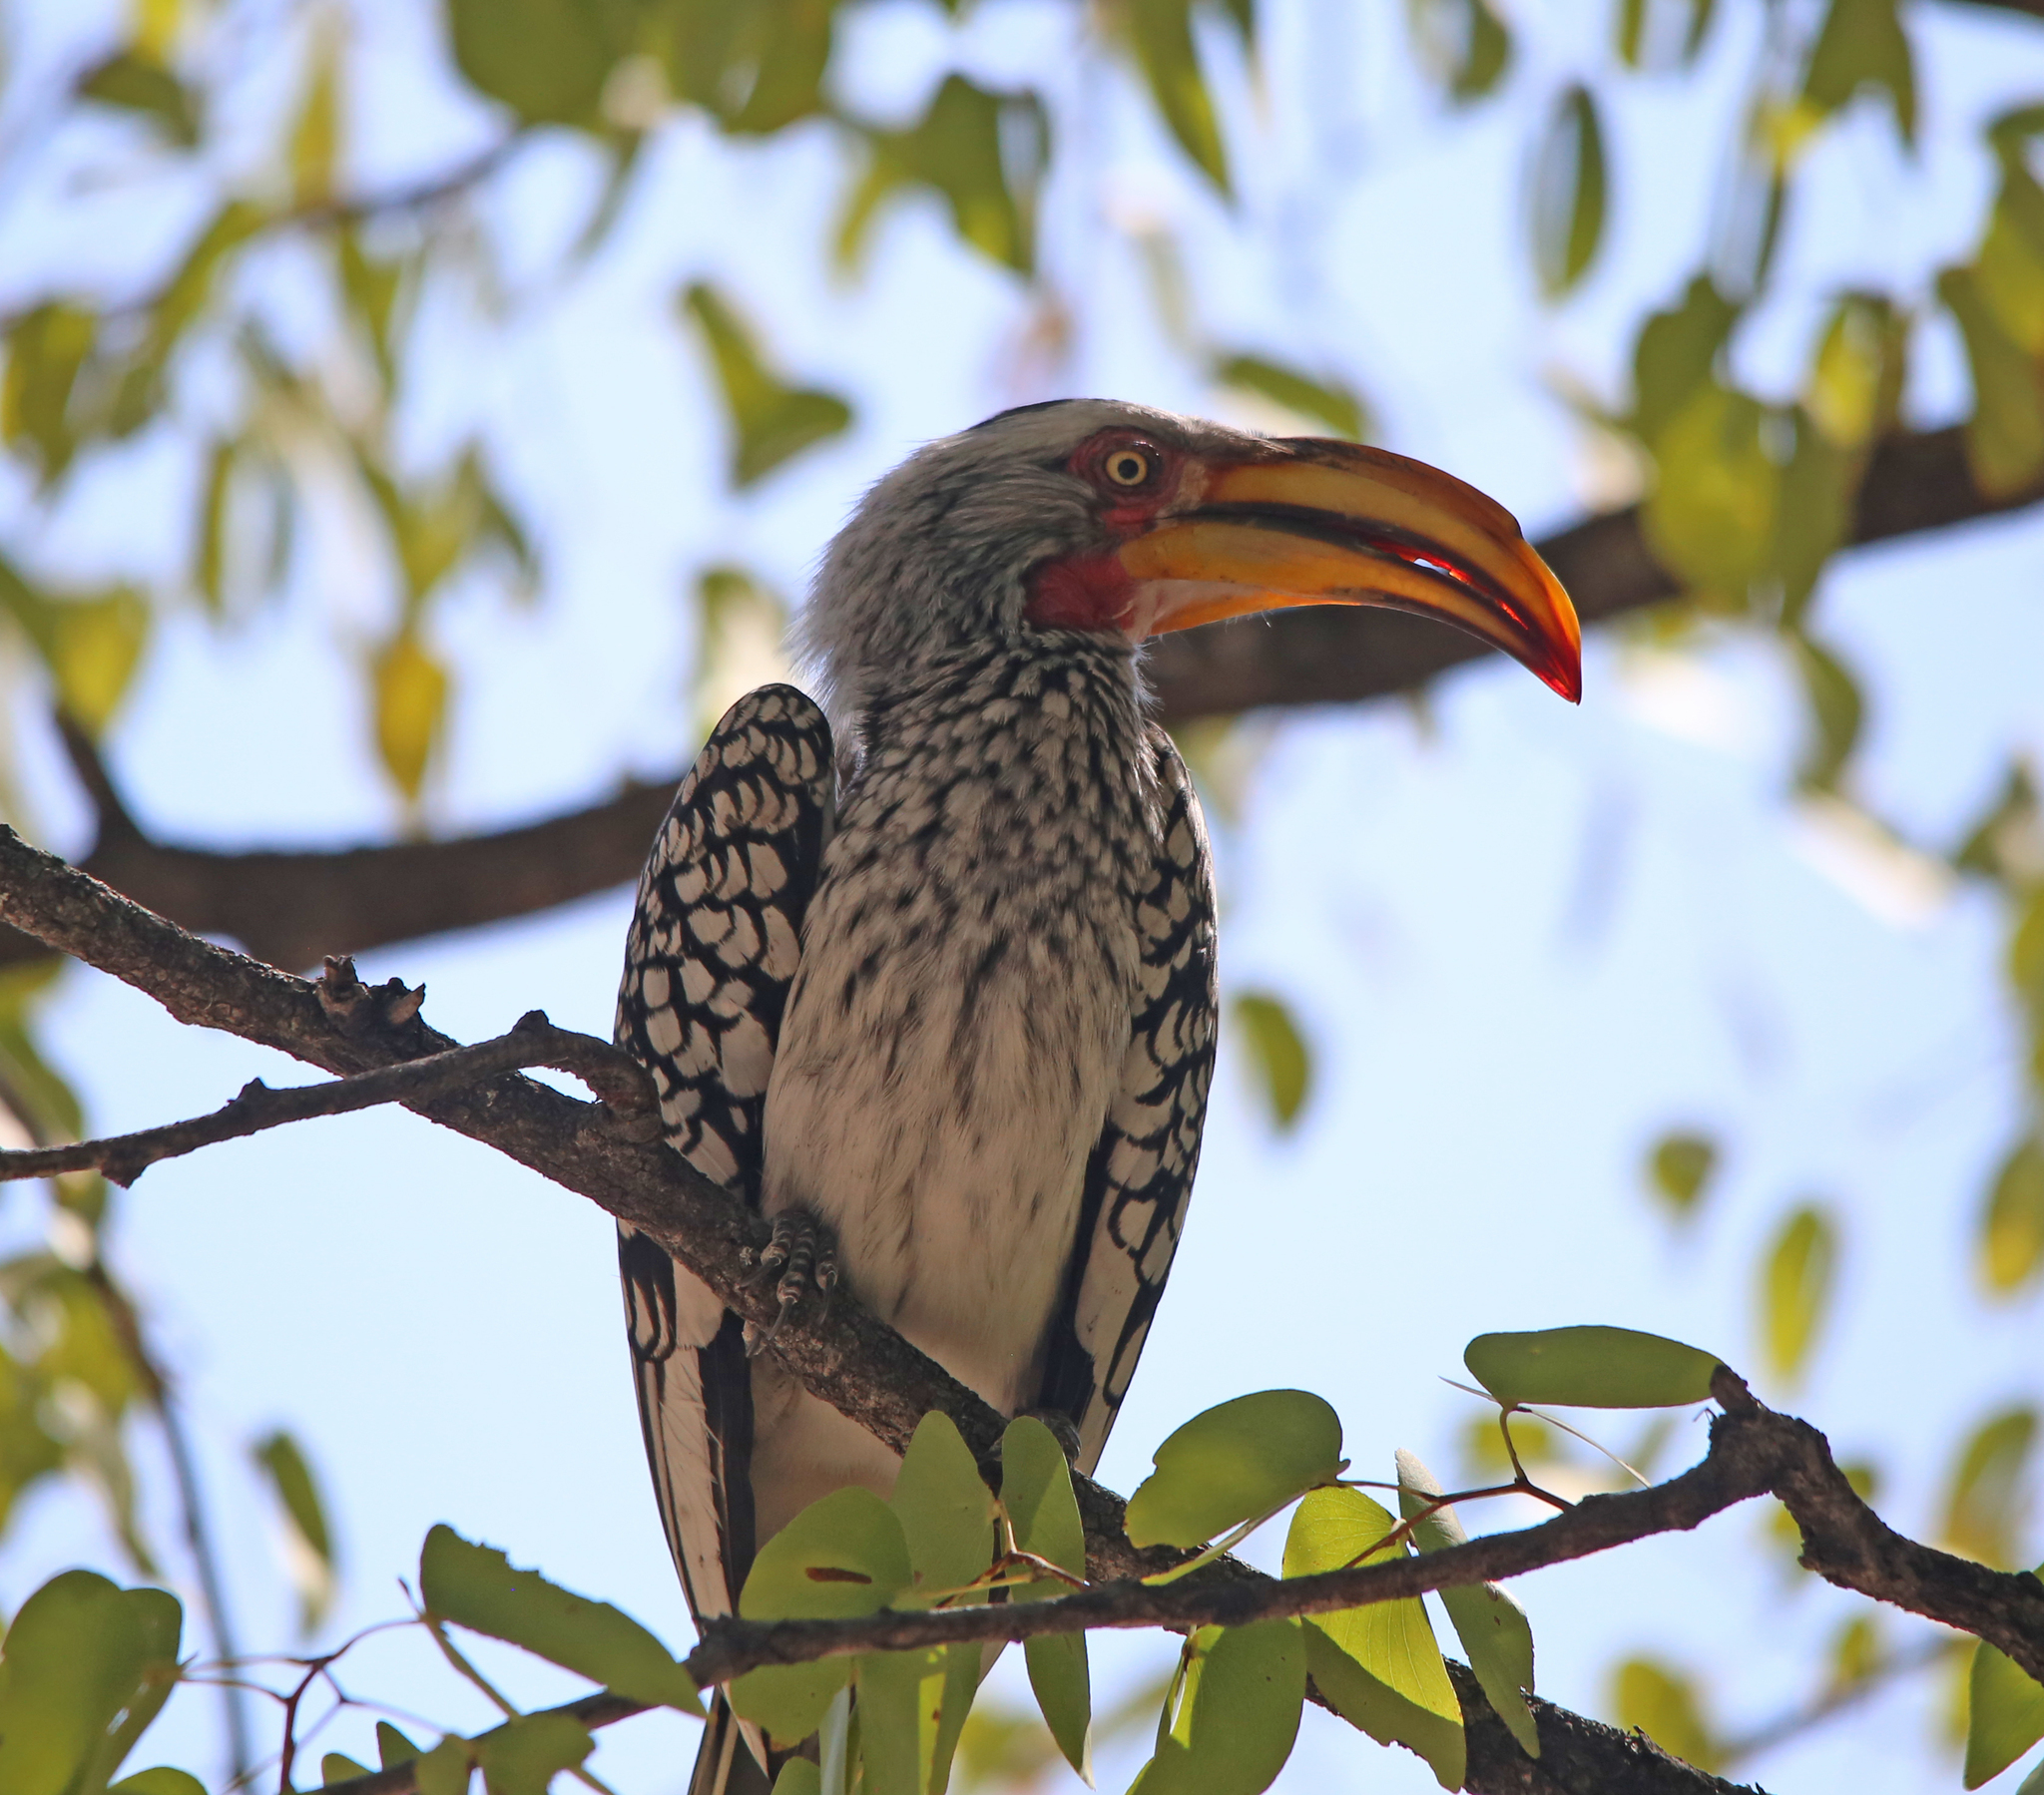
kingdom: Animalia
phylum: Chordata
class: Aves
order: Bucerotiformes
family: Bucerotidae
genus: Tockus
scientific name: Tockus leucomelas
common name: Southern yellow-billed hornbill
